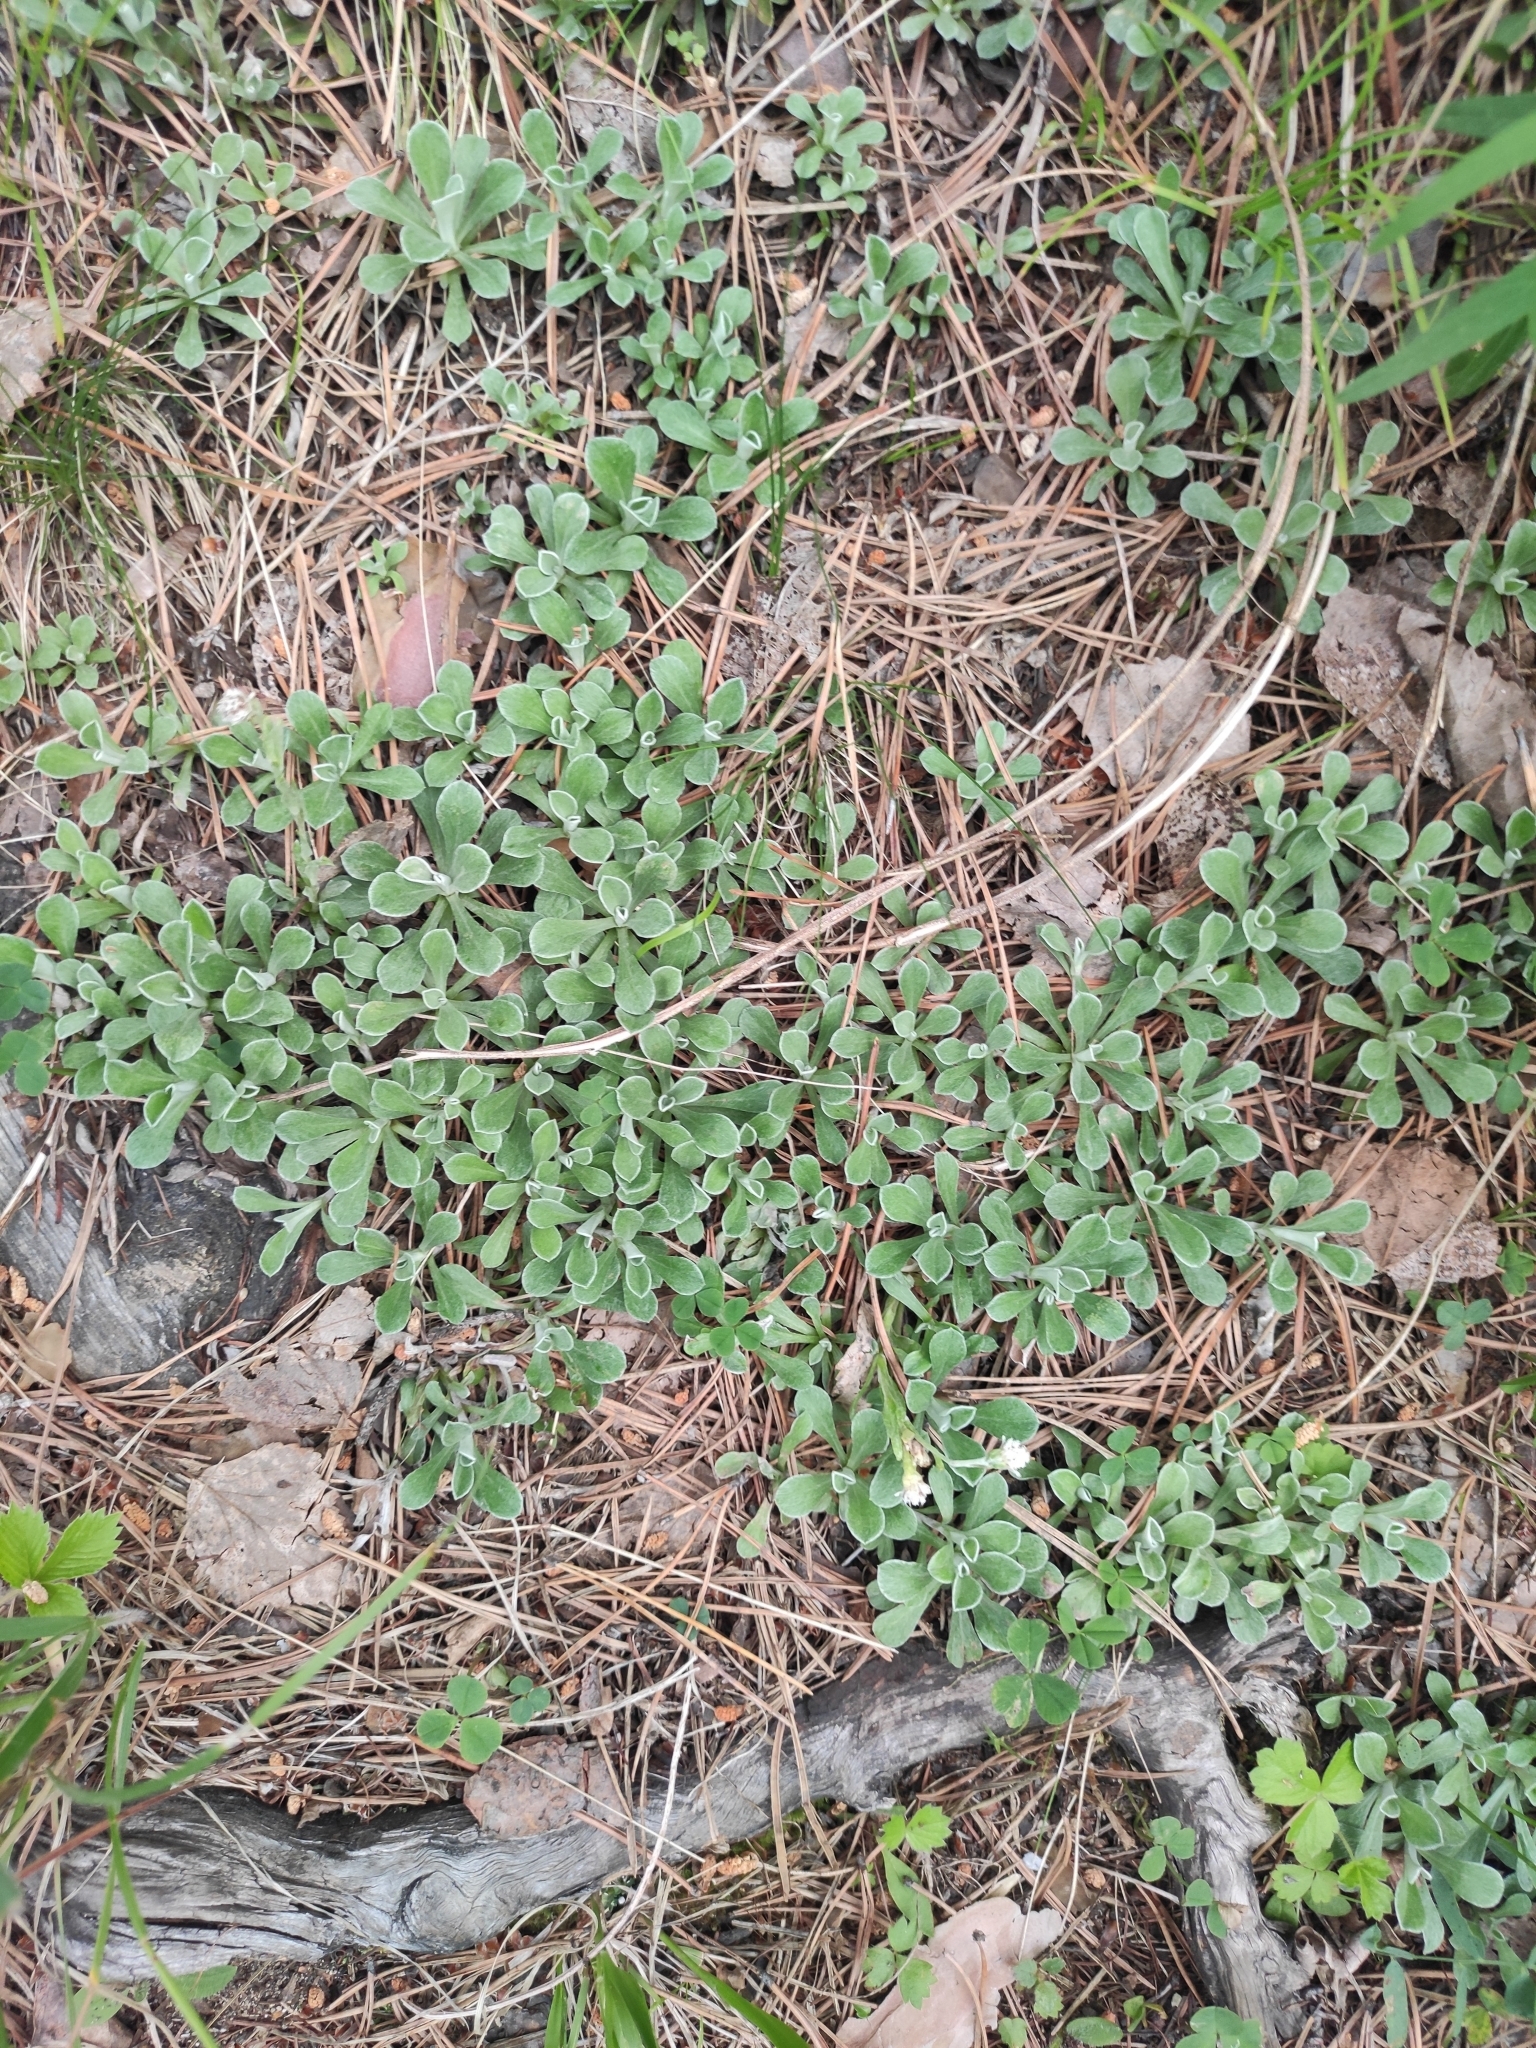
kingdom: Plantae
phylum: Tracheophyta
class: Magnoliopsida
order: Asterales
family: Asteraceae
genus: Antennaria
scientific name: Antennaria dioica
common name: Mountain everlasting
